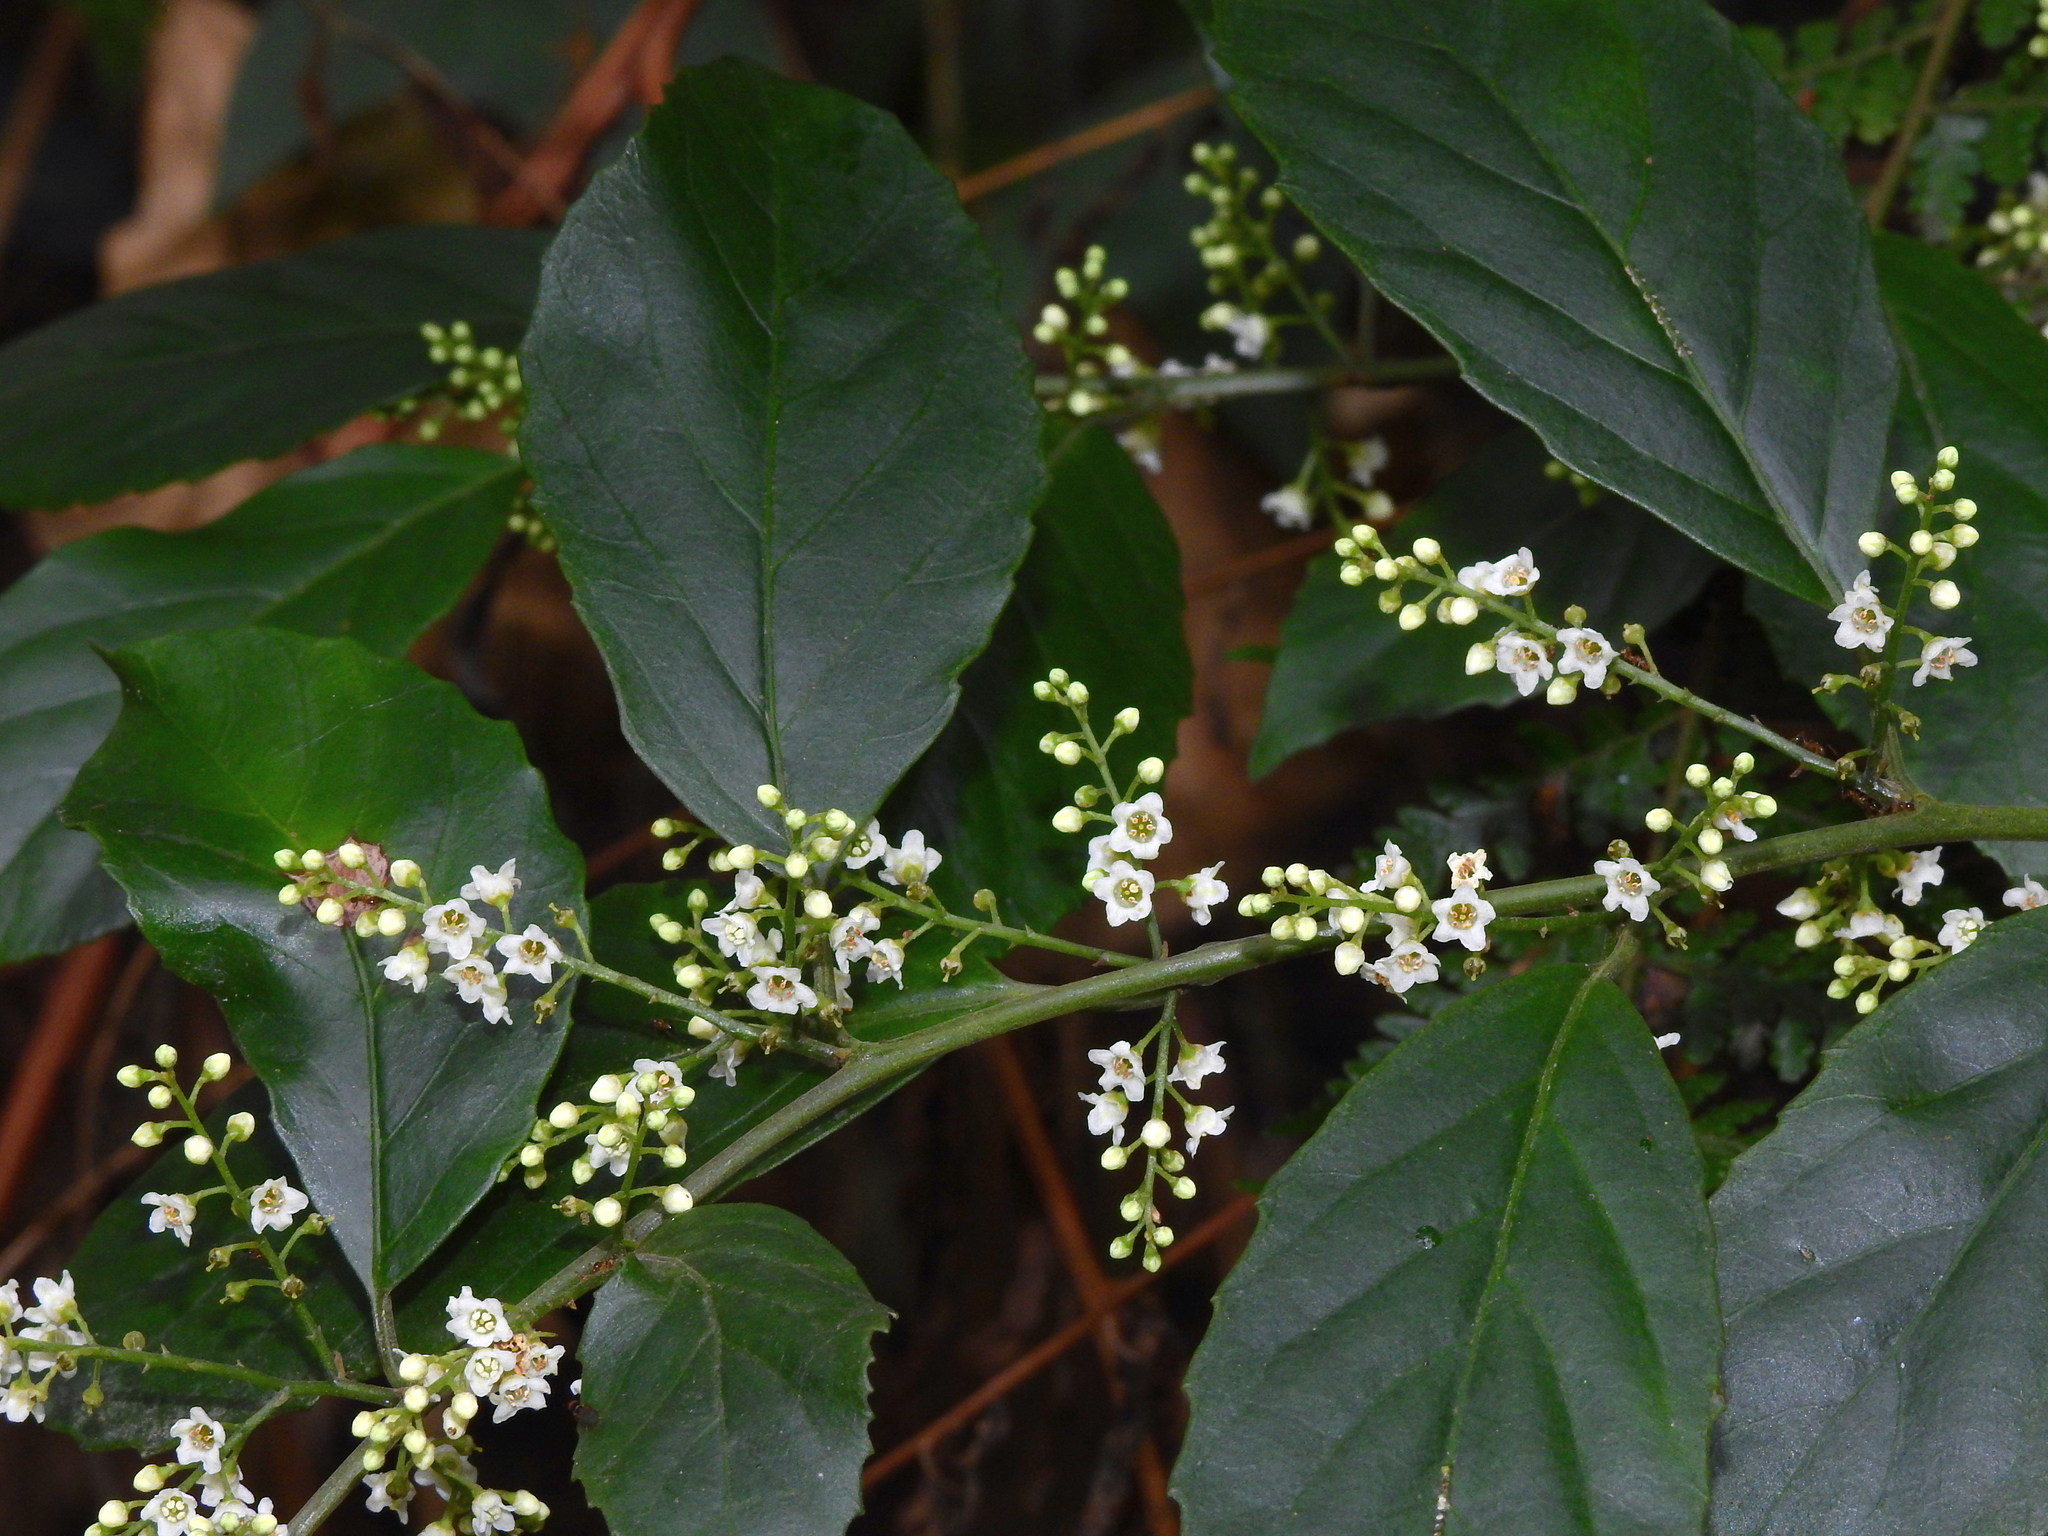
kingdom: Plantae
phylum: Tracheophyta
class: Magnoliopsida
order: Ericales
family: Primulaceae
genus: Maesa
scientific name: Maesa perlaria
